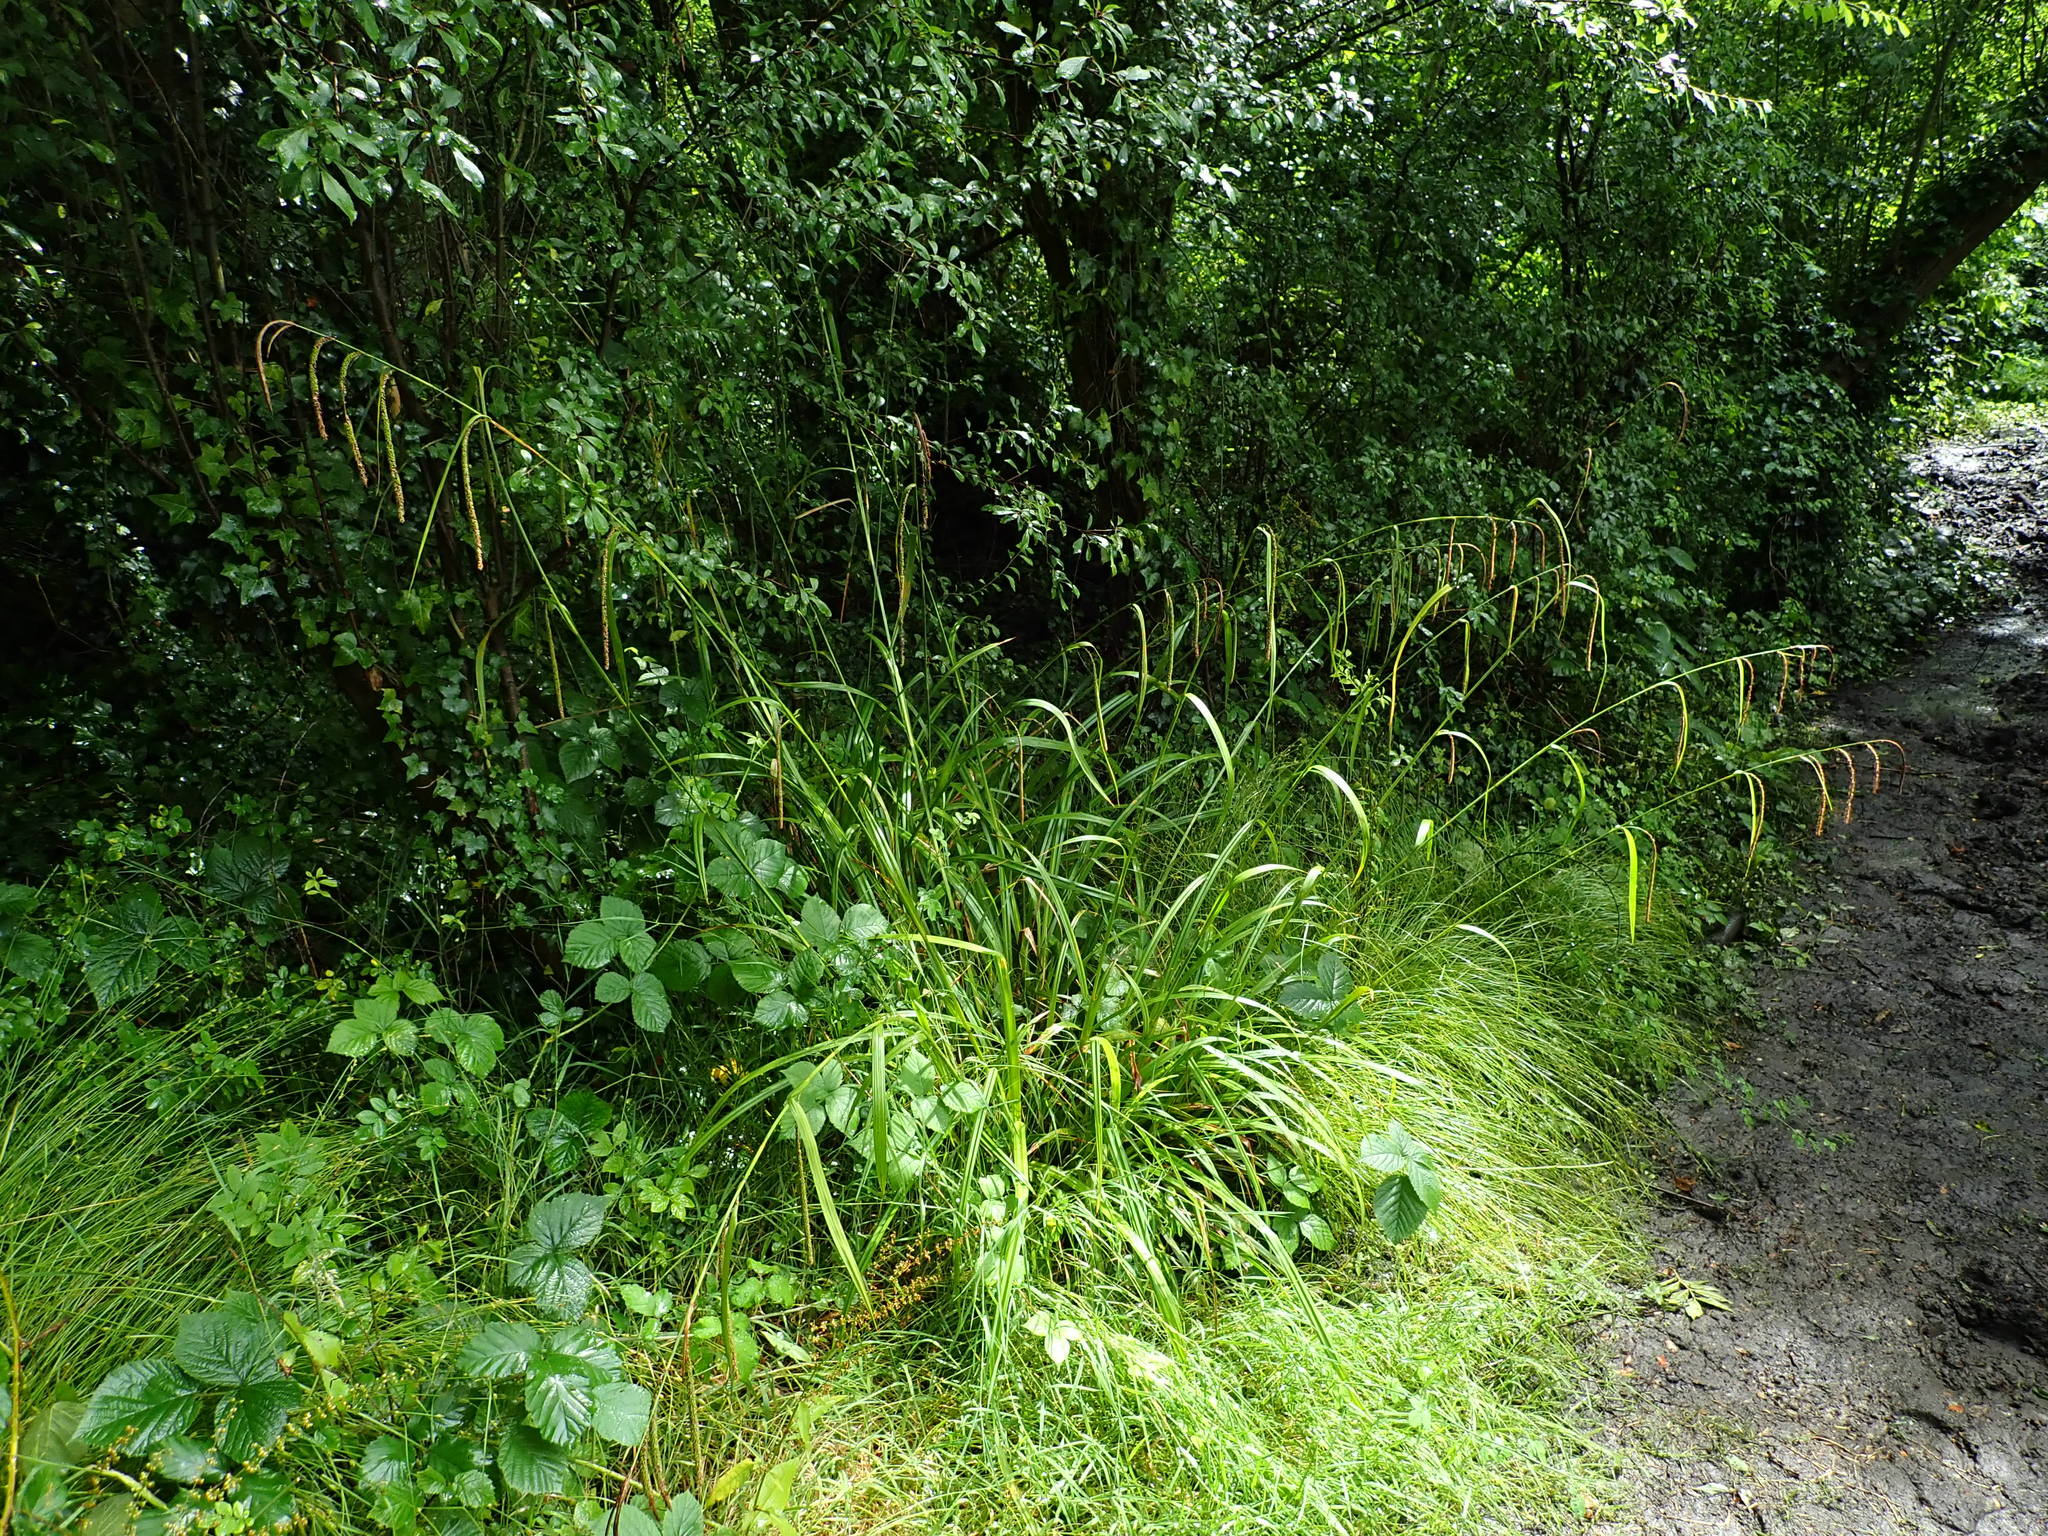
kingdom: Plantae
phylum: Tracheophyta
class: Liliopsida
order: Poales
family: Cyperaceae
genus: Carex
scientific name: Carex pendula
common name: Pendulous sedge
